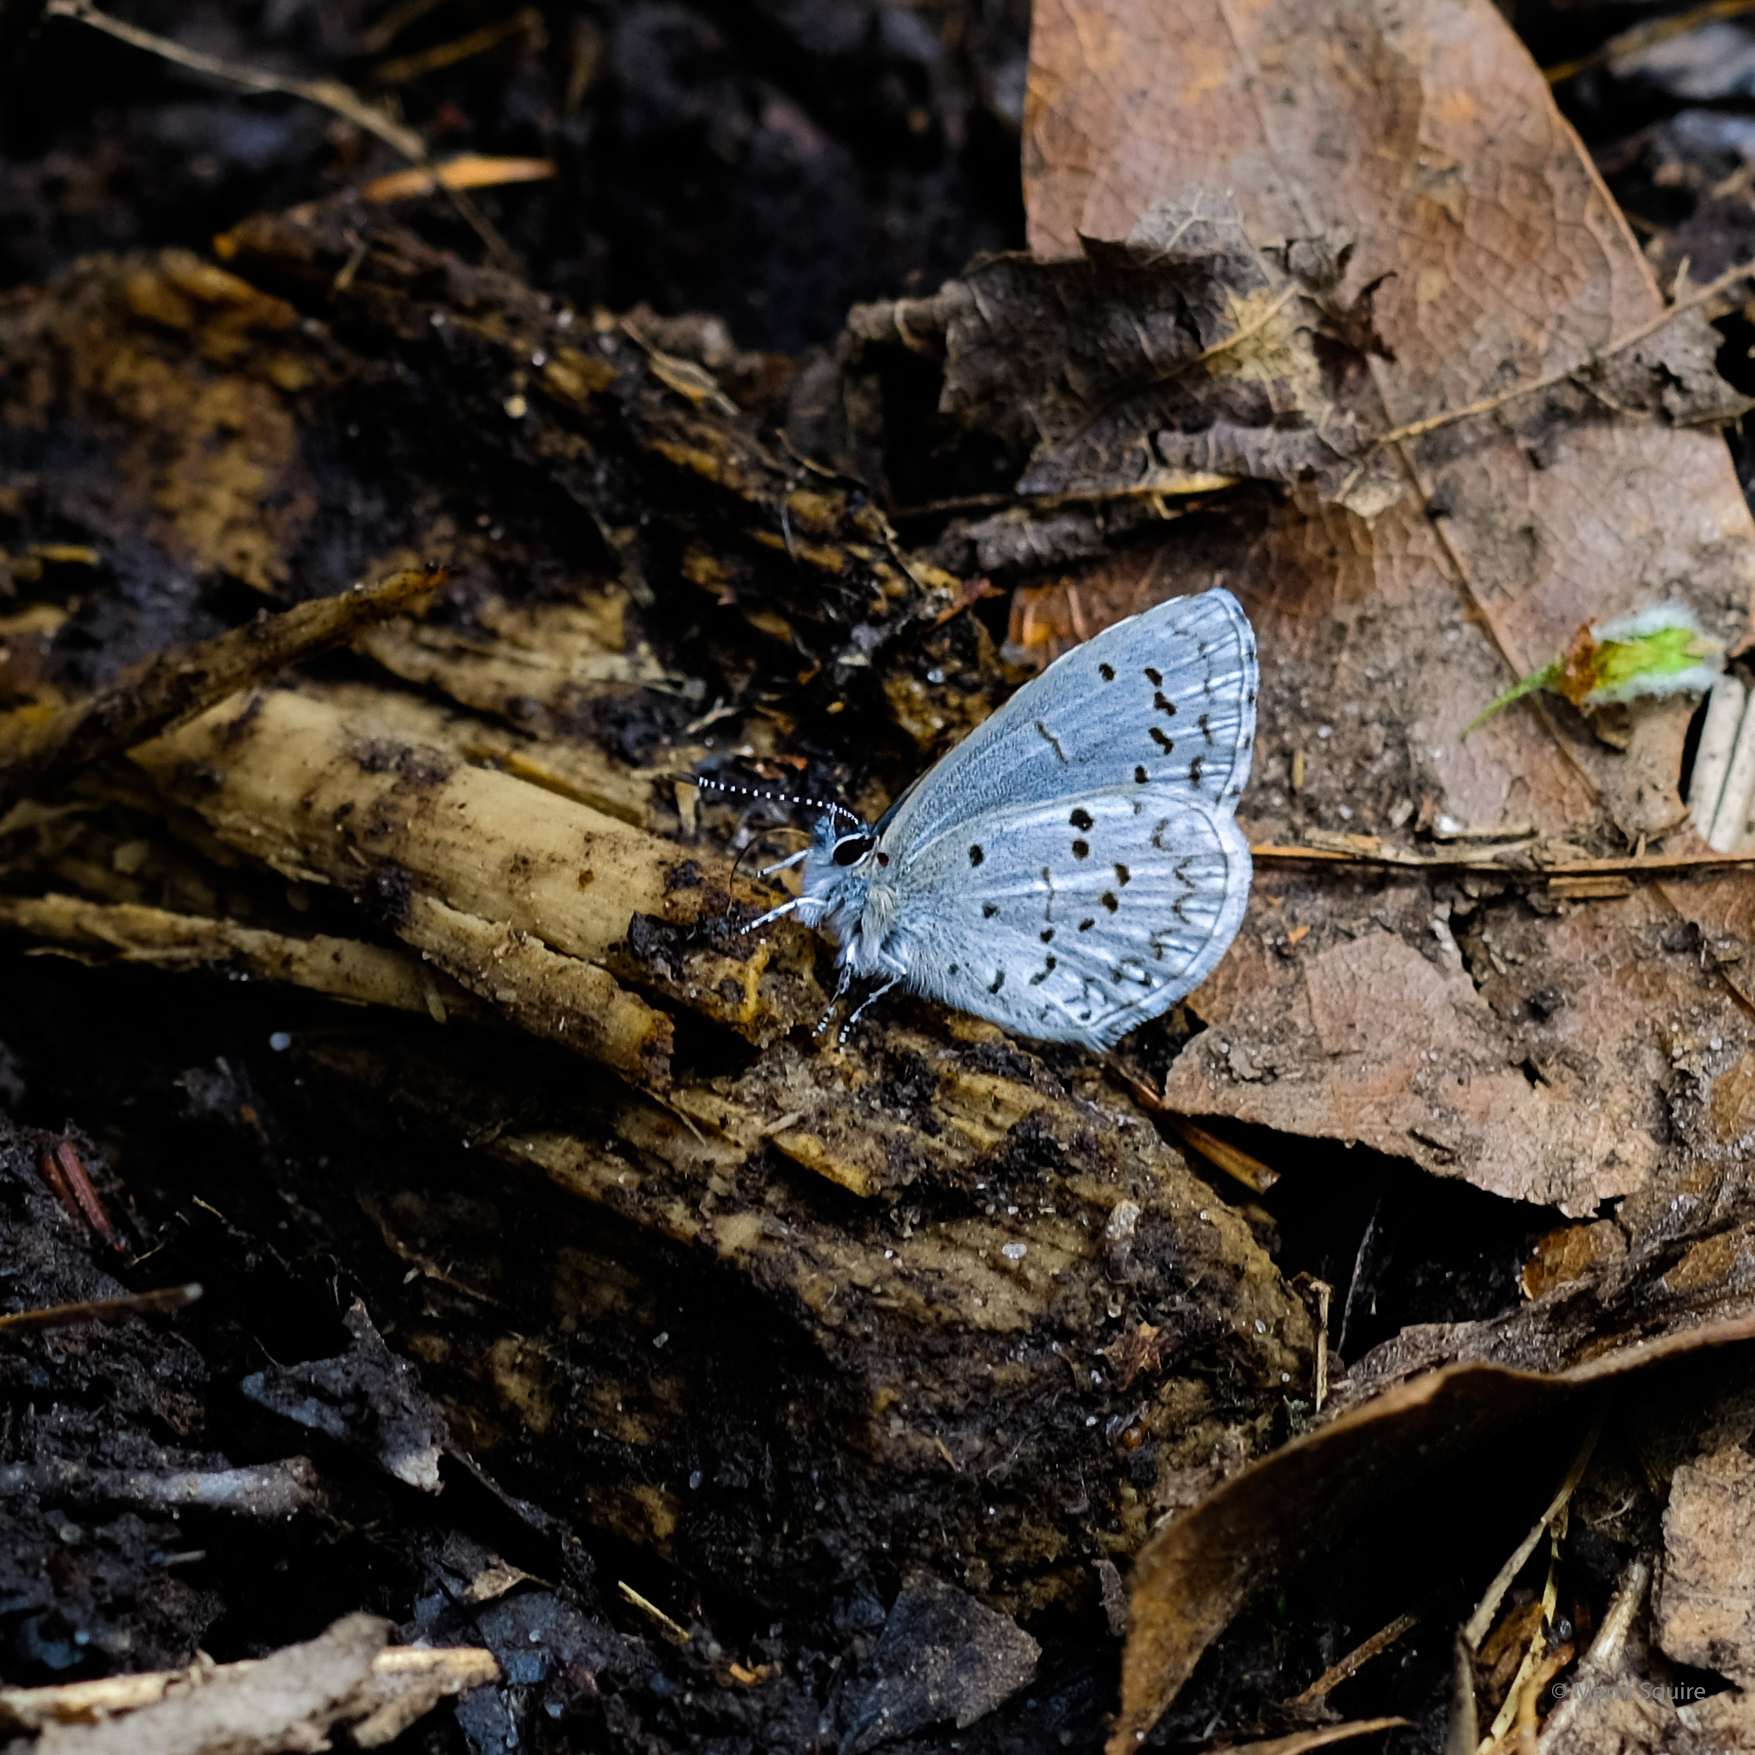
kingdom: Animalia
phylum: Arthropoda
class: Insecta
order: Lepidoptera
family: Lycaenidae
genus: Celastrina
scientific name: Celastrina lucia
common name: Lucia azure
